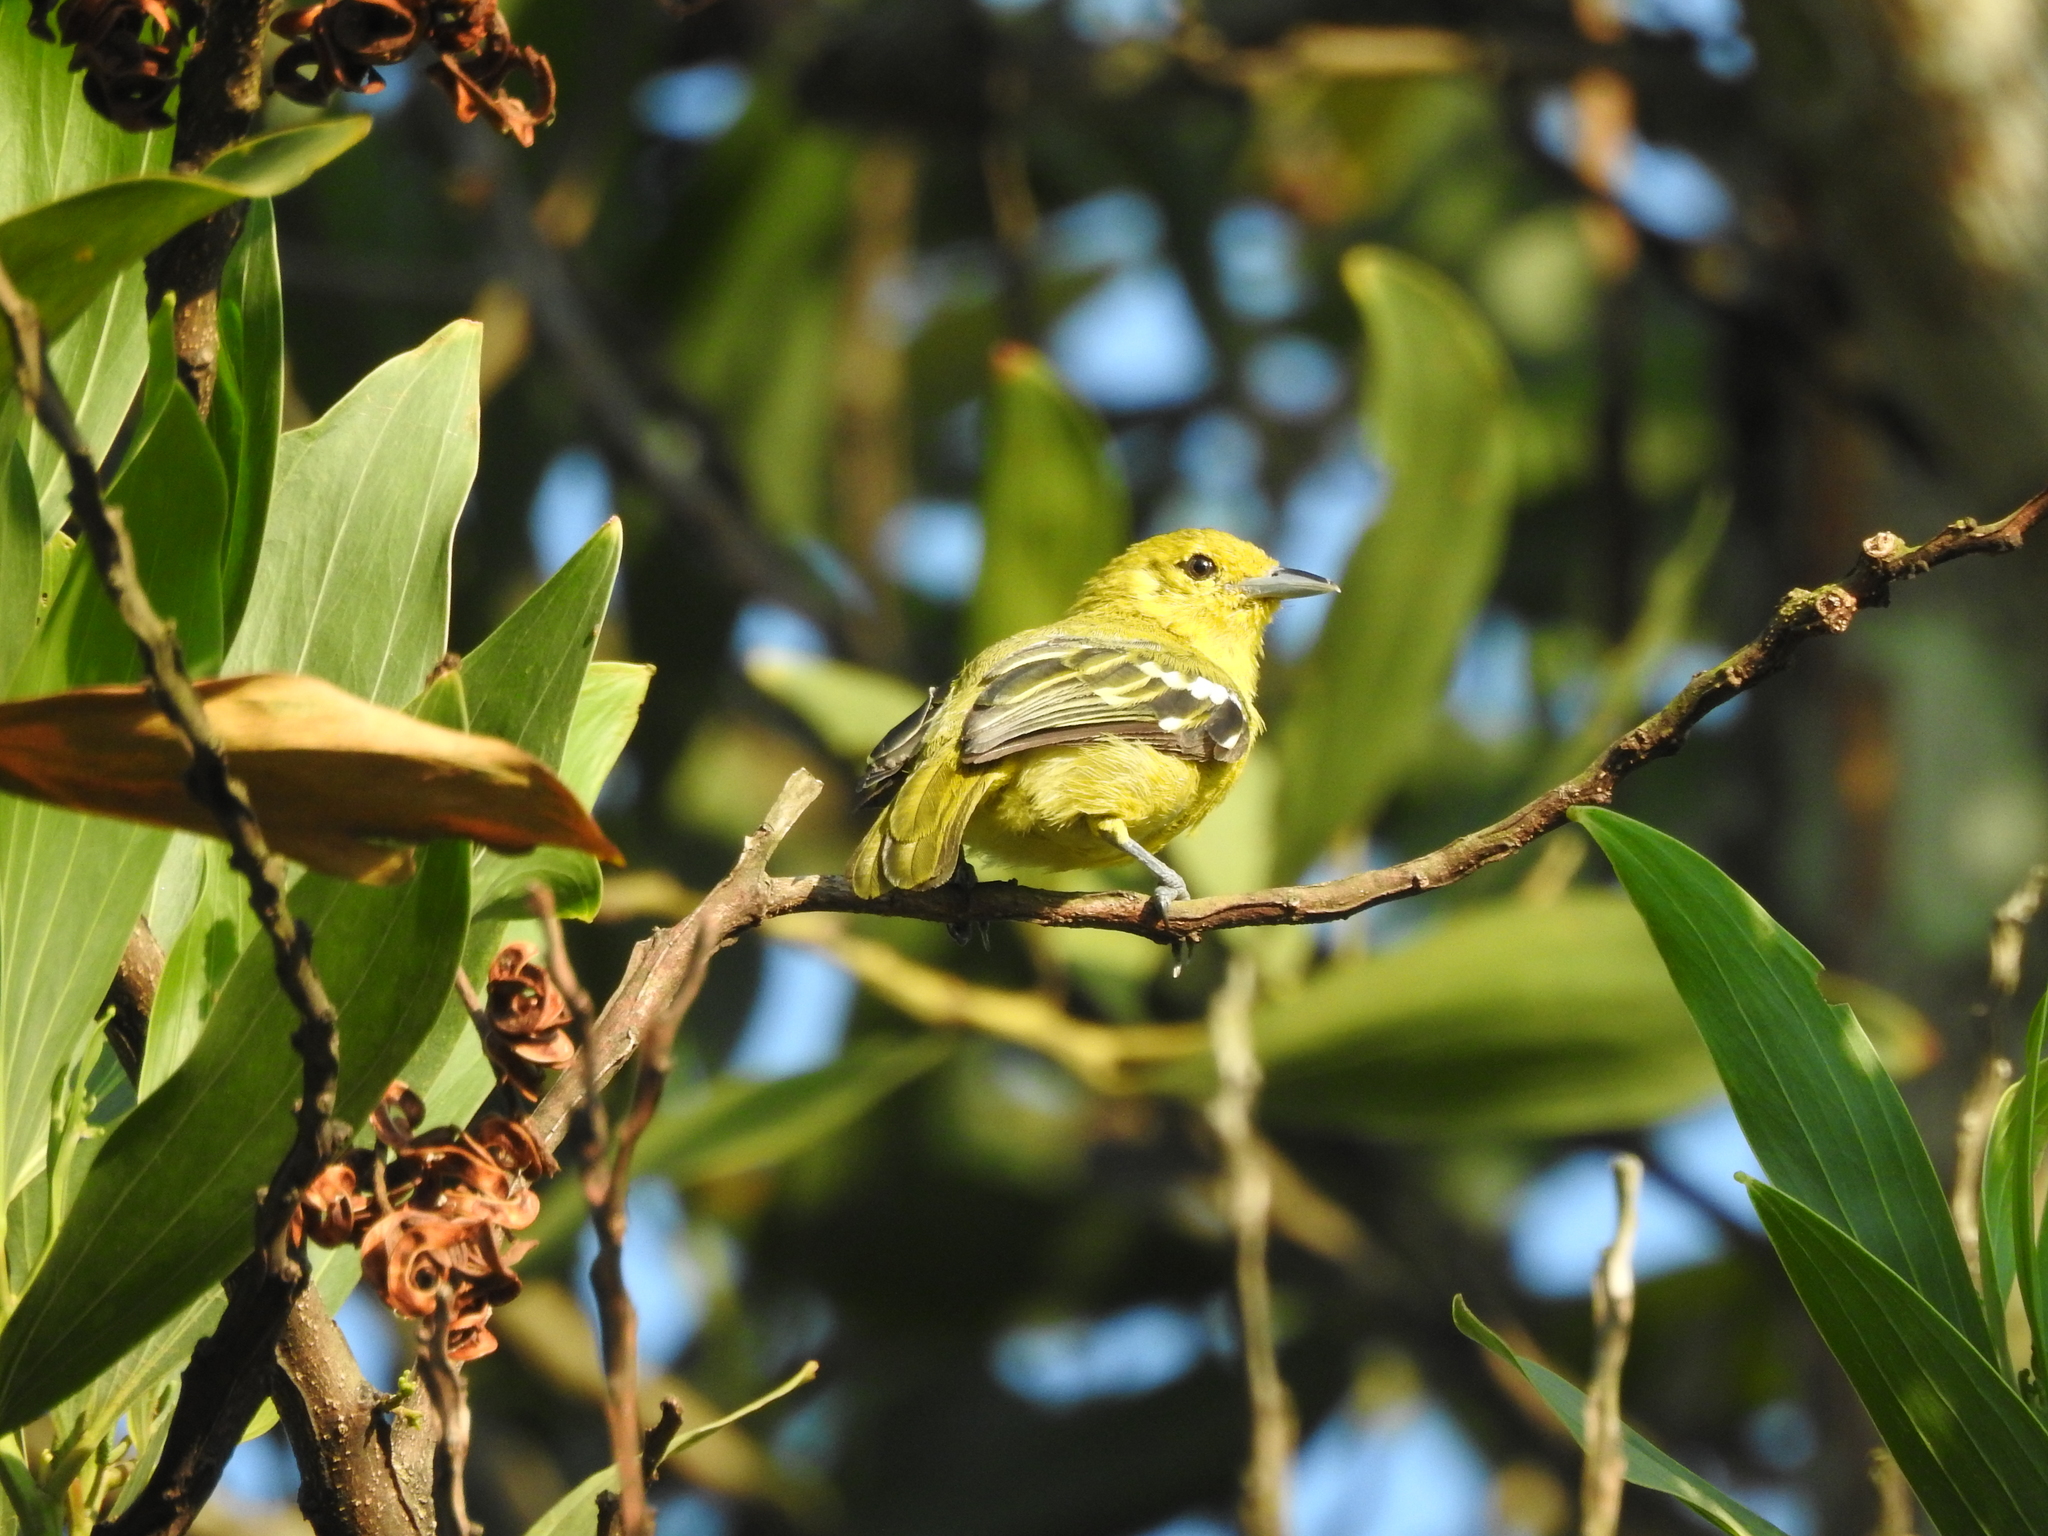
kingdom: Animalia
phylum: Chordata
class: Aves
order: Passeriformes
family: Aegithinidae
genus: Aegithina
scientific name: Aegithina tiphia
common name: Common iora
